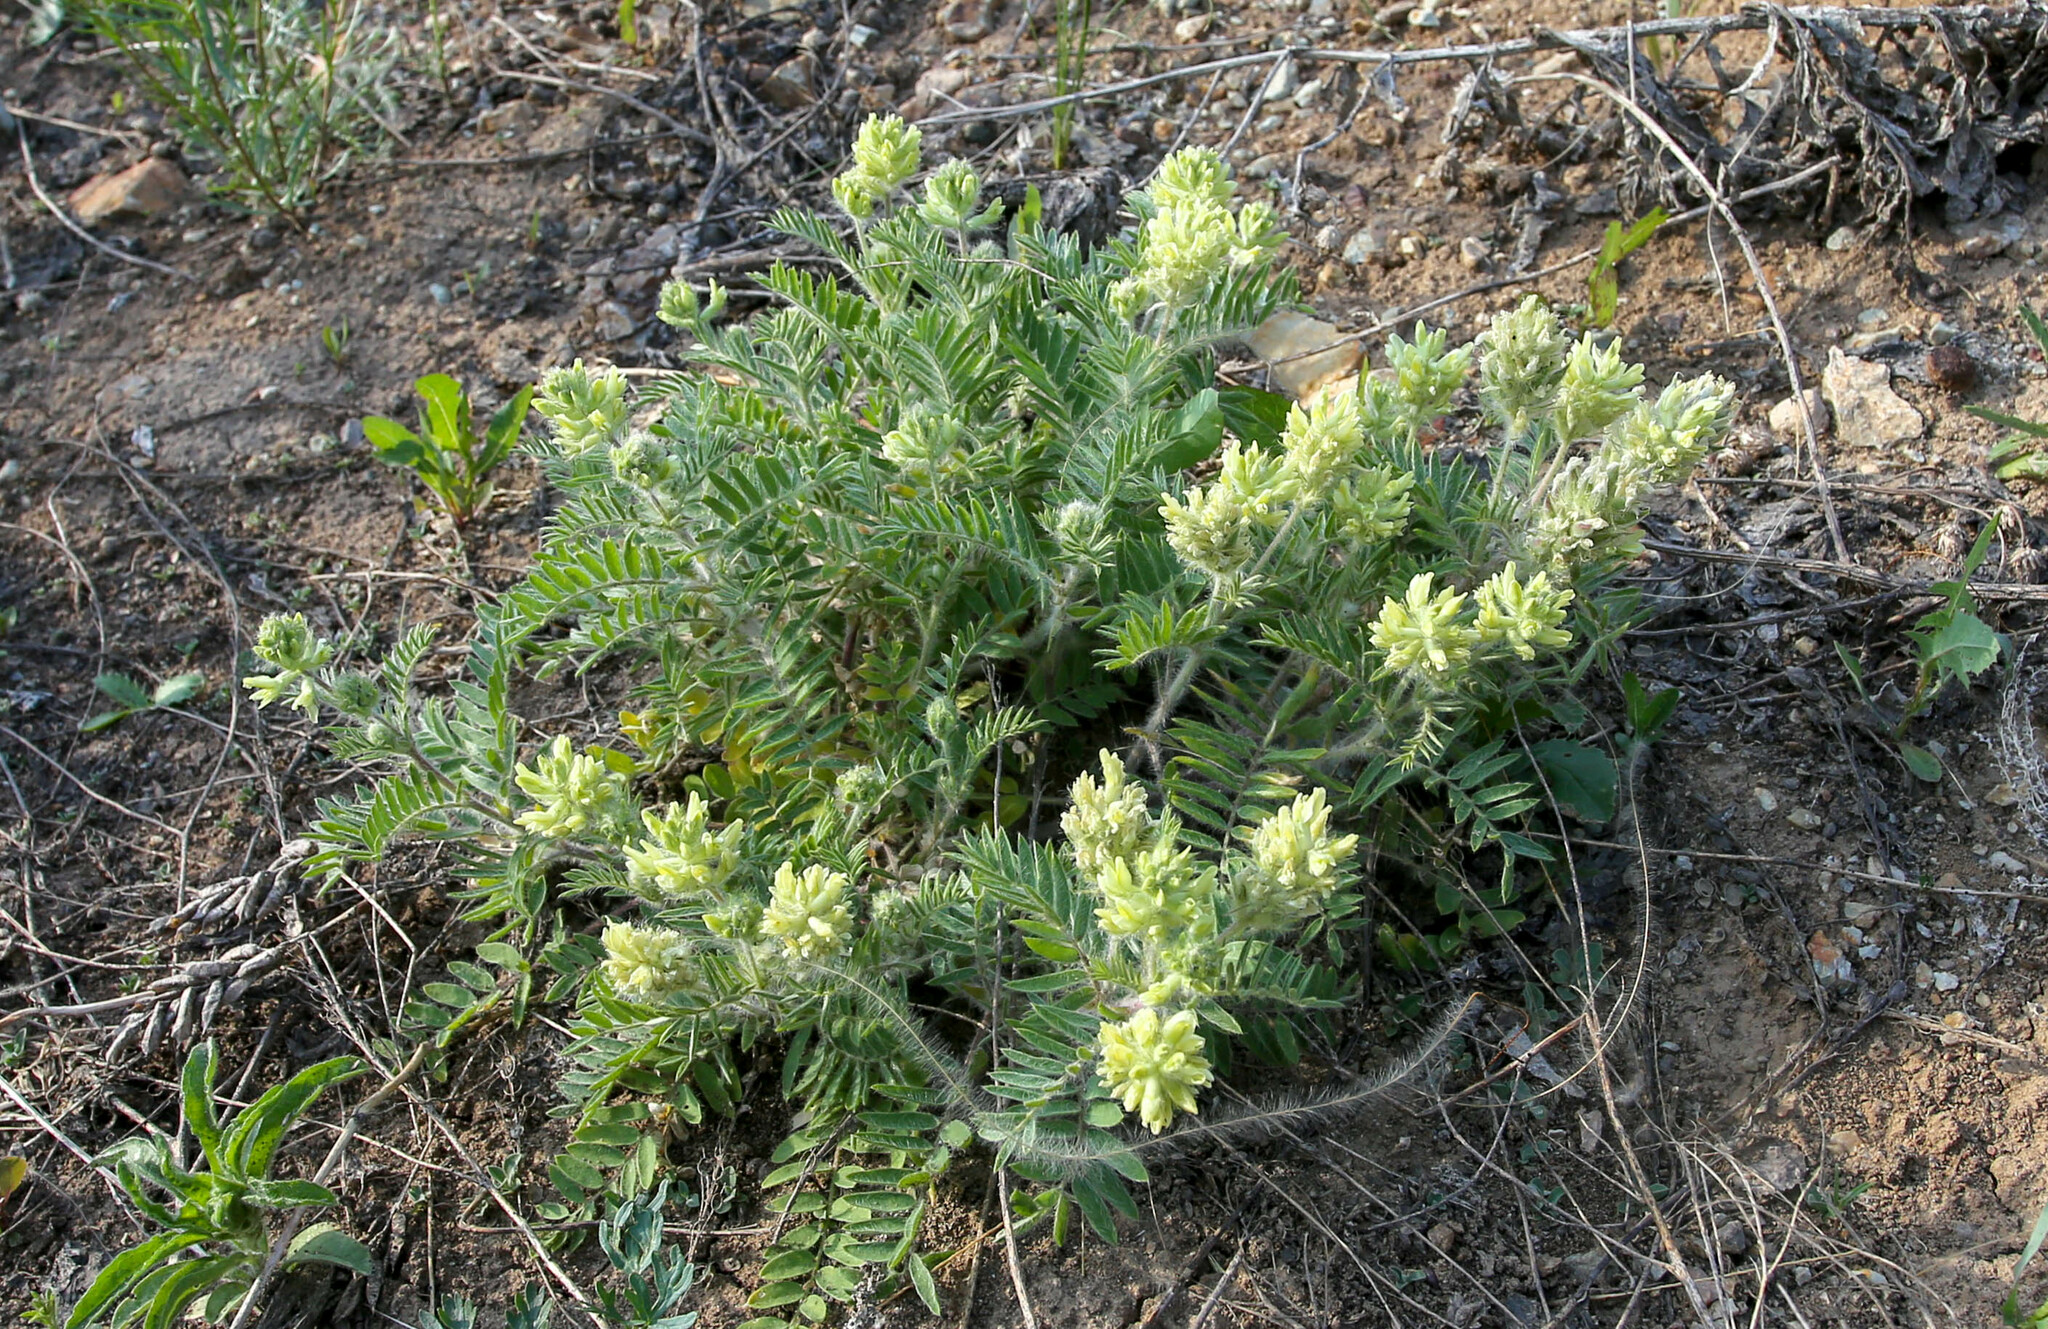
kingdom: Plantae
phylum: Tracheophyta
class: Magnoliopsida
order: Fabales
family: Fabaceae
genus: Oxytropis
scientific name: Oxytropis pilosa
